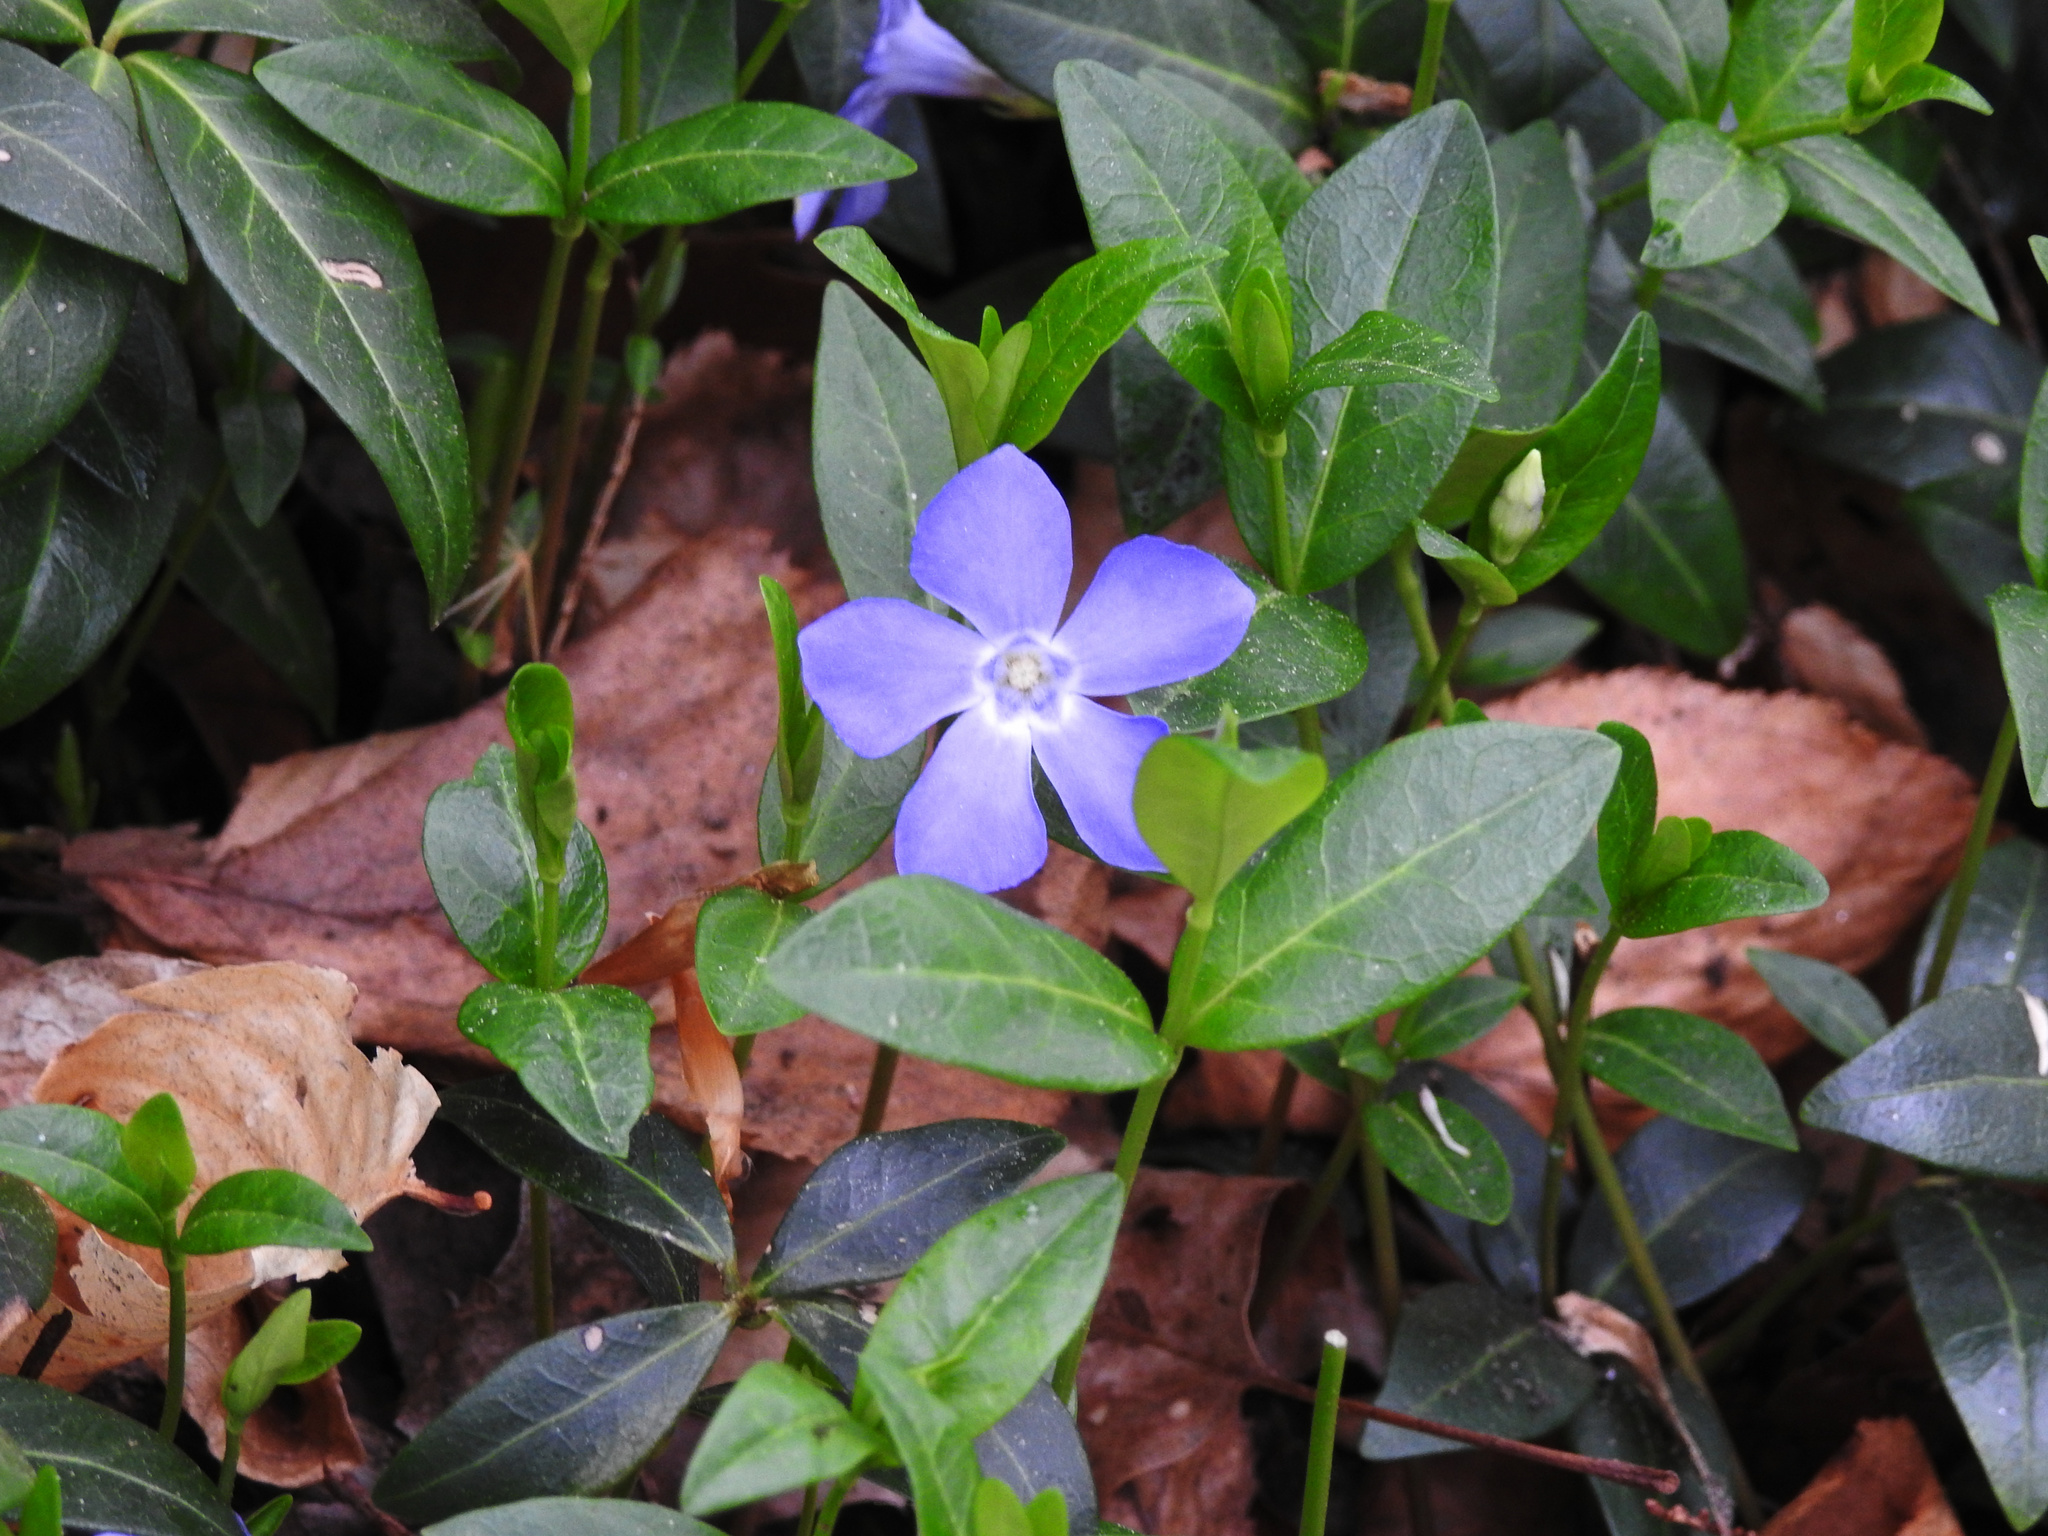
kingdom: Plantae
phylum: Tracheophyta
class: Magnoliopsida
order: Gentianales
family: Apocynaceae
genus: Vinca
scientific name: Vinca minor
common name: Lesser periwinkle
